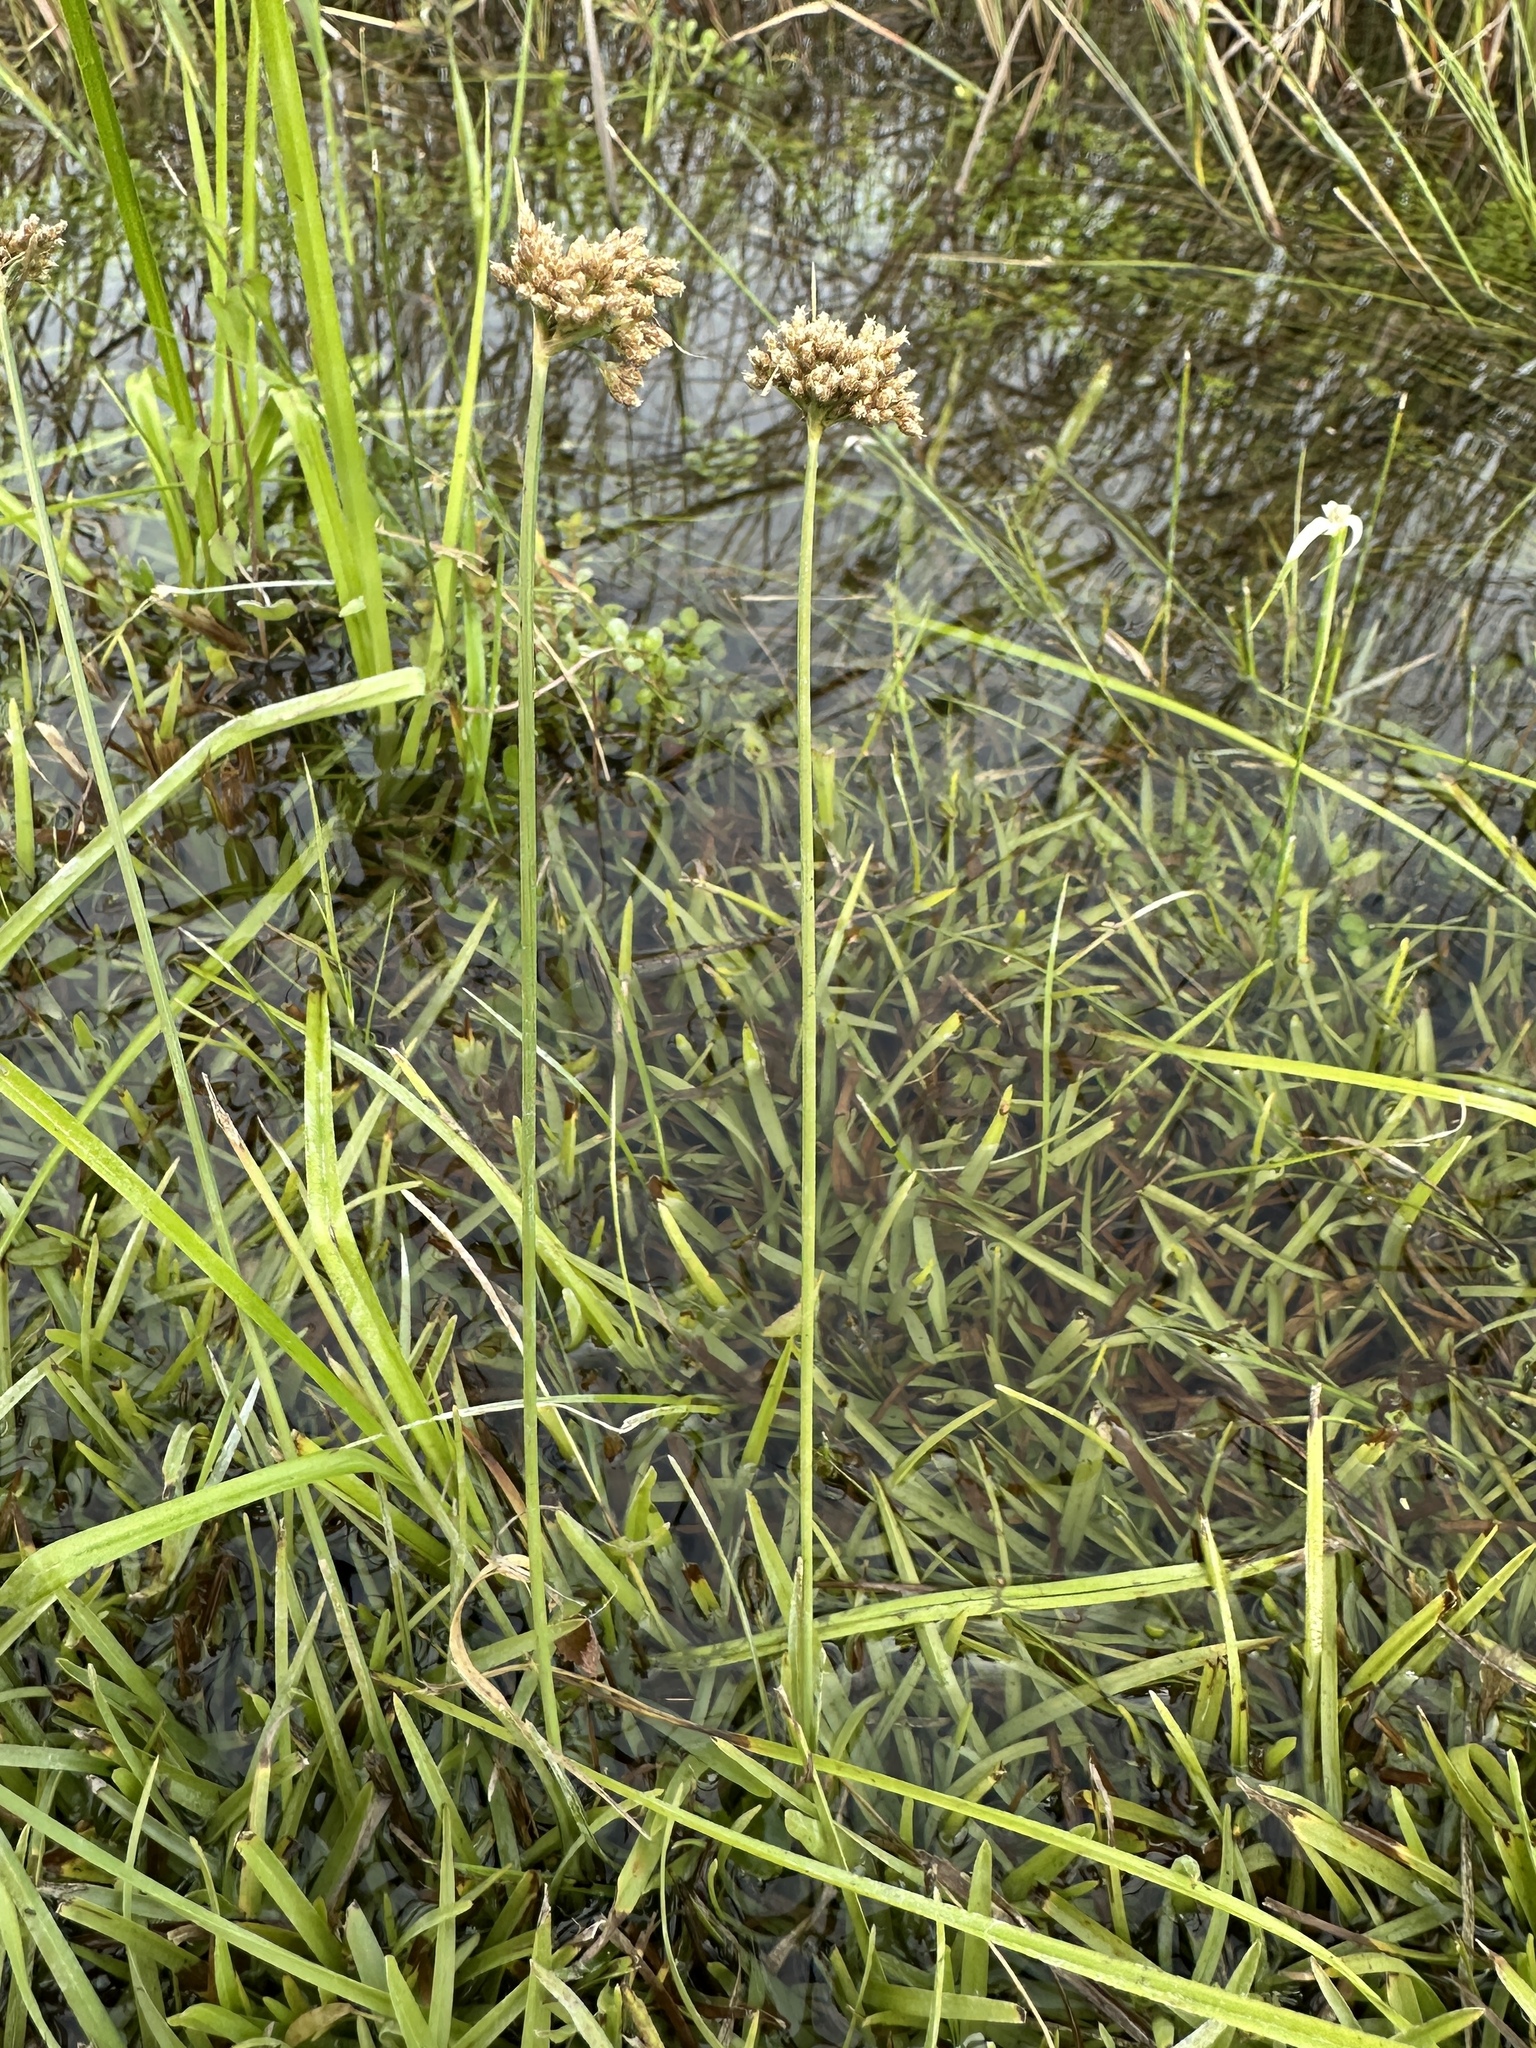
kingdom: Plantae
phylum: Tracheophyta
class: Liliopsida
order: Poales
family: Cyperaceae
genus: Fimbristylis
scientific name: Fimbristylis cymosa
